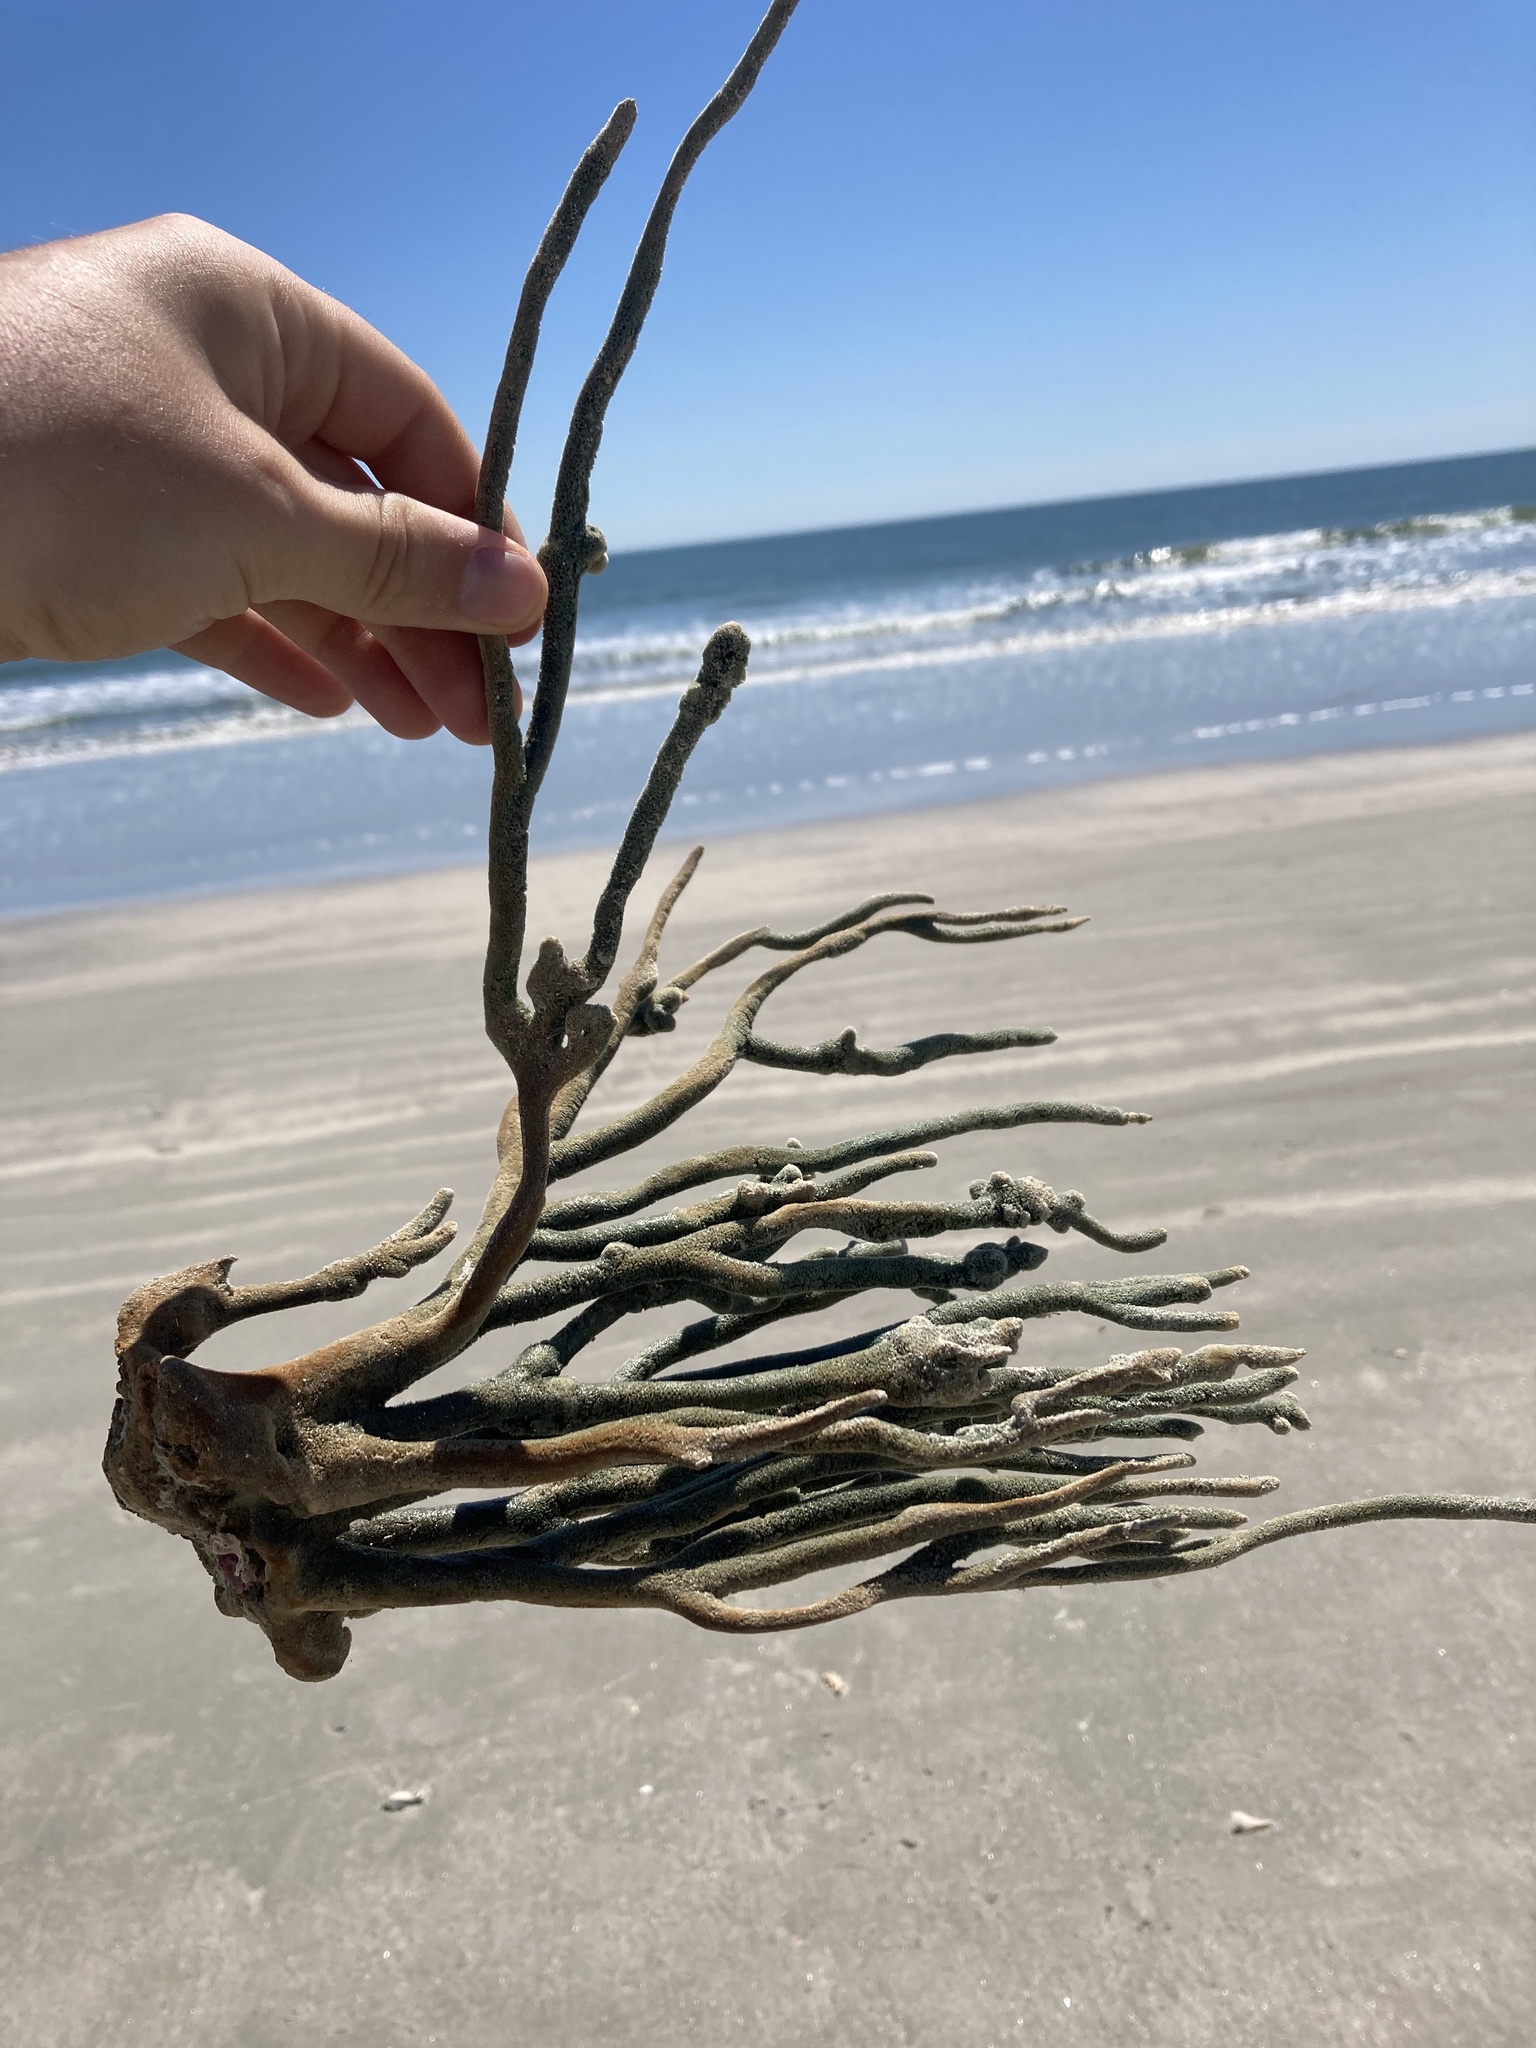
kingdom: Plantae
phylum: Chlorophyta
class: Ulvophyceae
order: Bryopsidales
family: Codiaceae
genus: Codium
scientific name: Codium fragile
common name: Dead man's fingers
